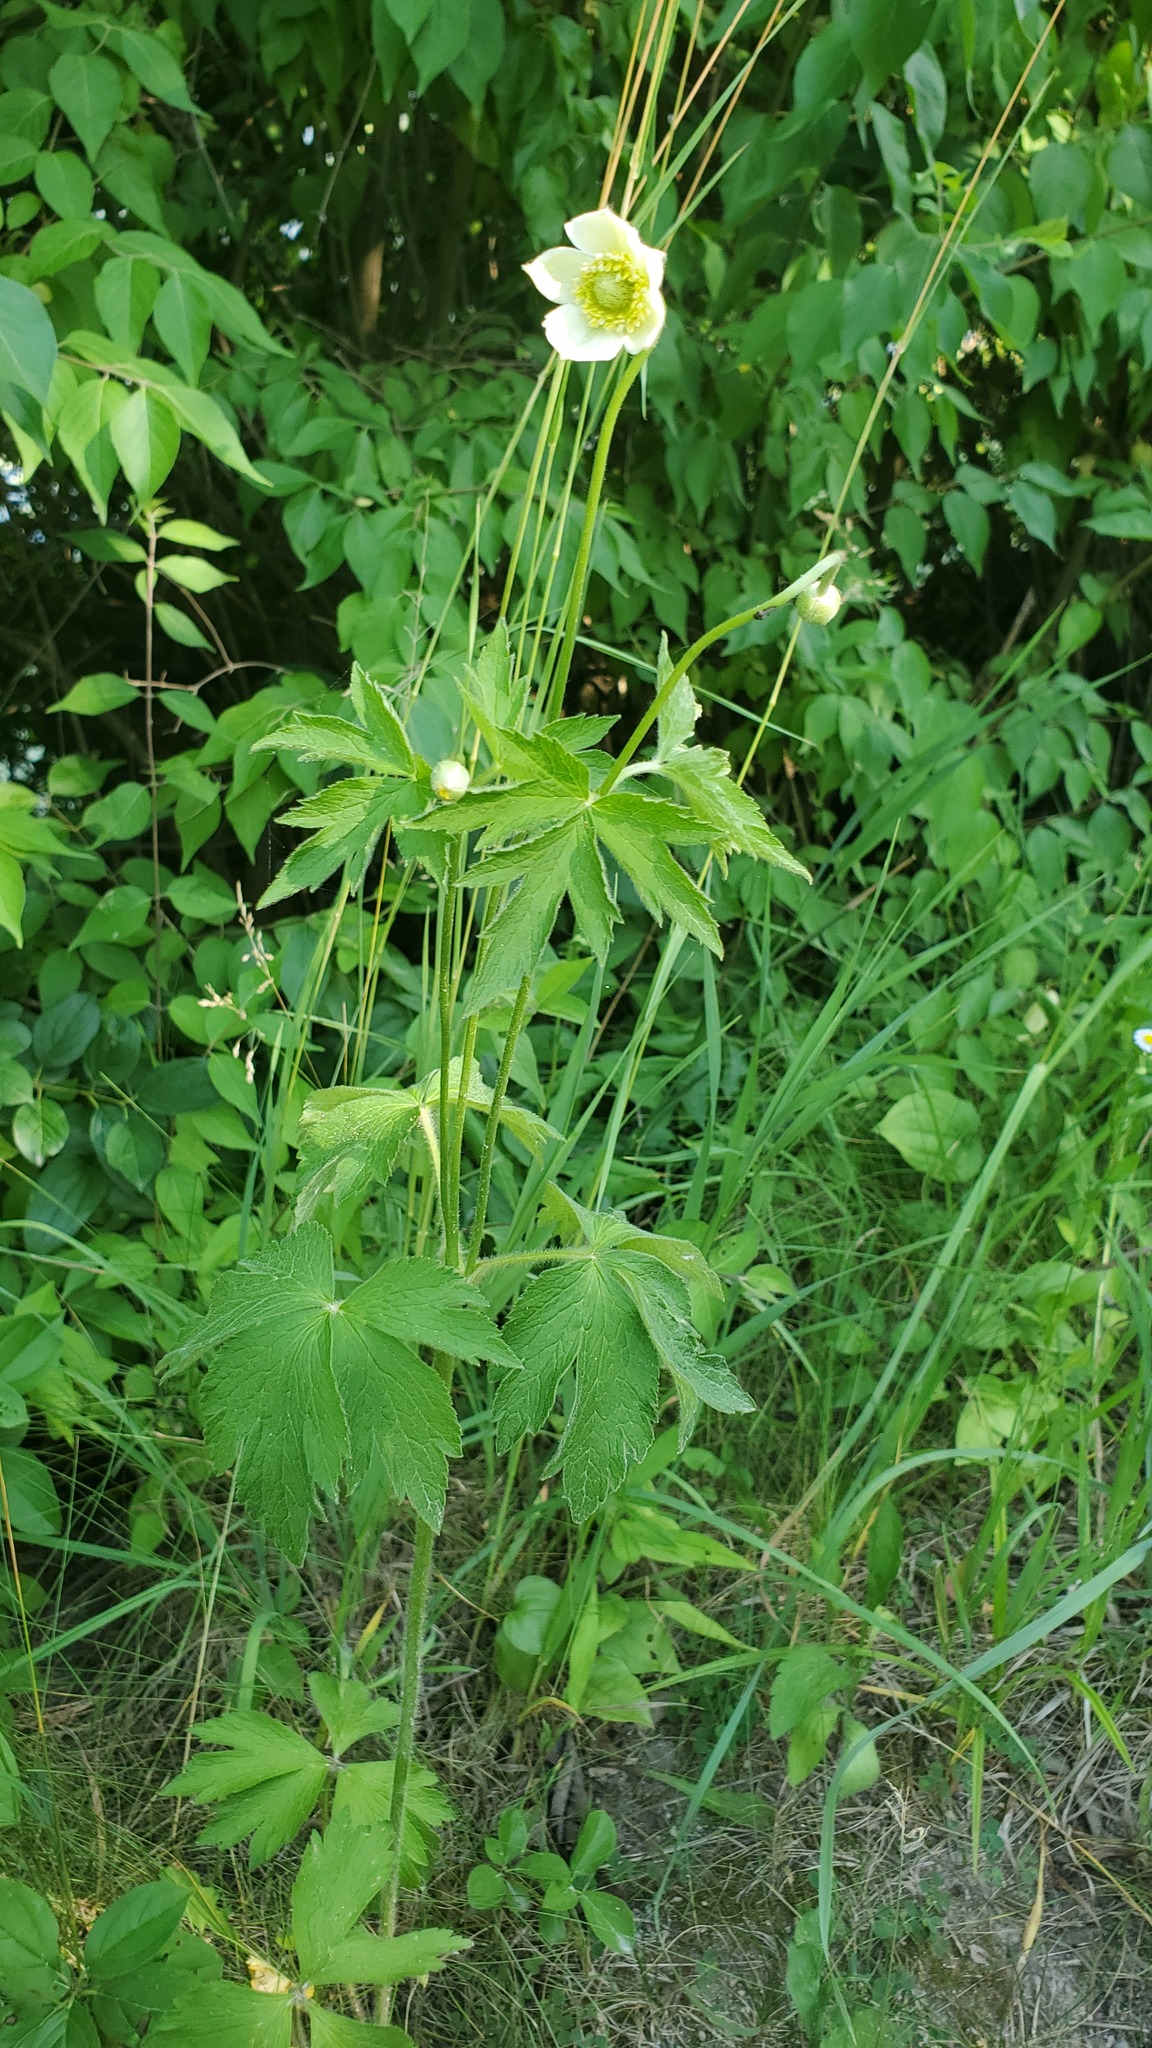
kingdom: Plantae
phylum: Tracheophyta
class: Magnoliopsida
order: Ranunculales
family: Ranunculaceae
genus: Anemone
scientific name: Anemone virginiana
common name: Tall anemone
